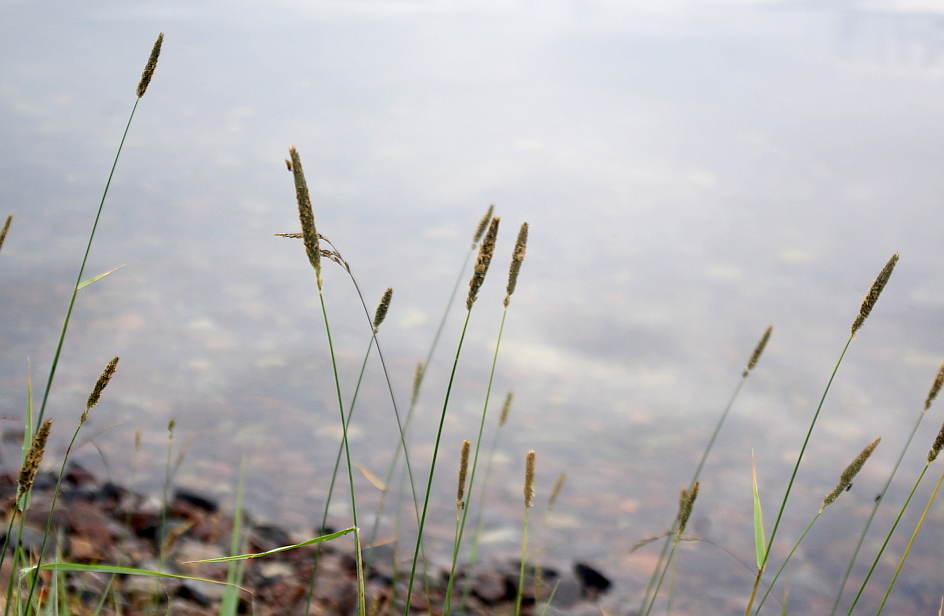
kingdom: Plantae
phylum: Tracheophyta
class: Liliopsida
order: Poales
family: Poaceae
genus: Alopecurus
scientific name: Alopecurus arundinaceus
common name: Creeping meadow foxtail
